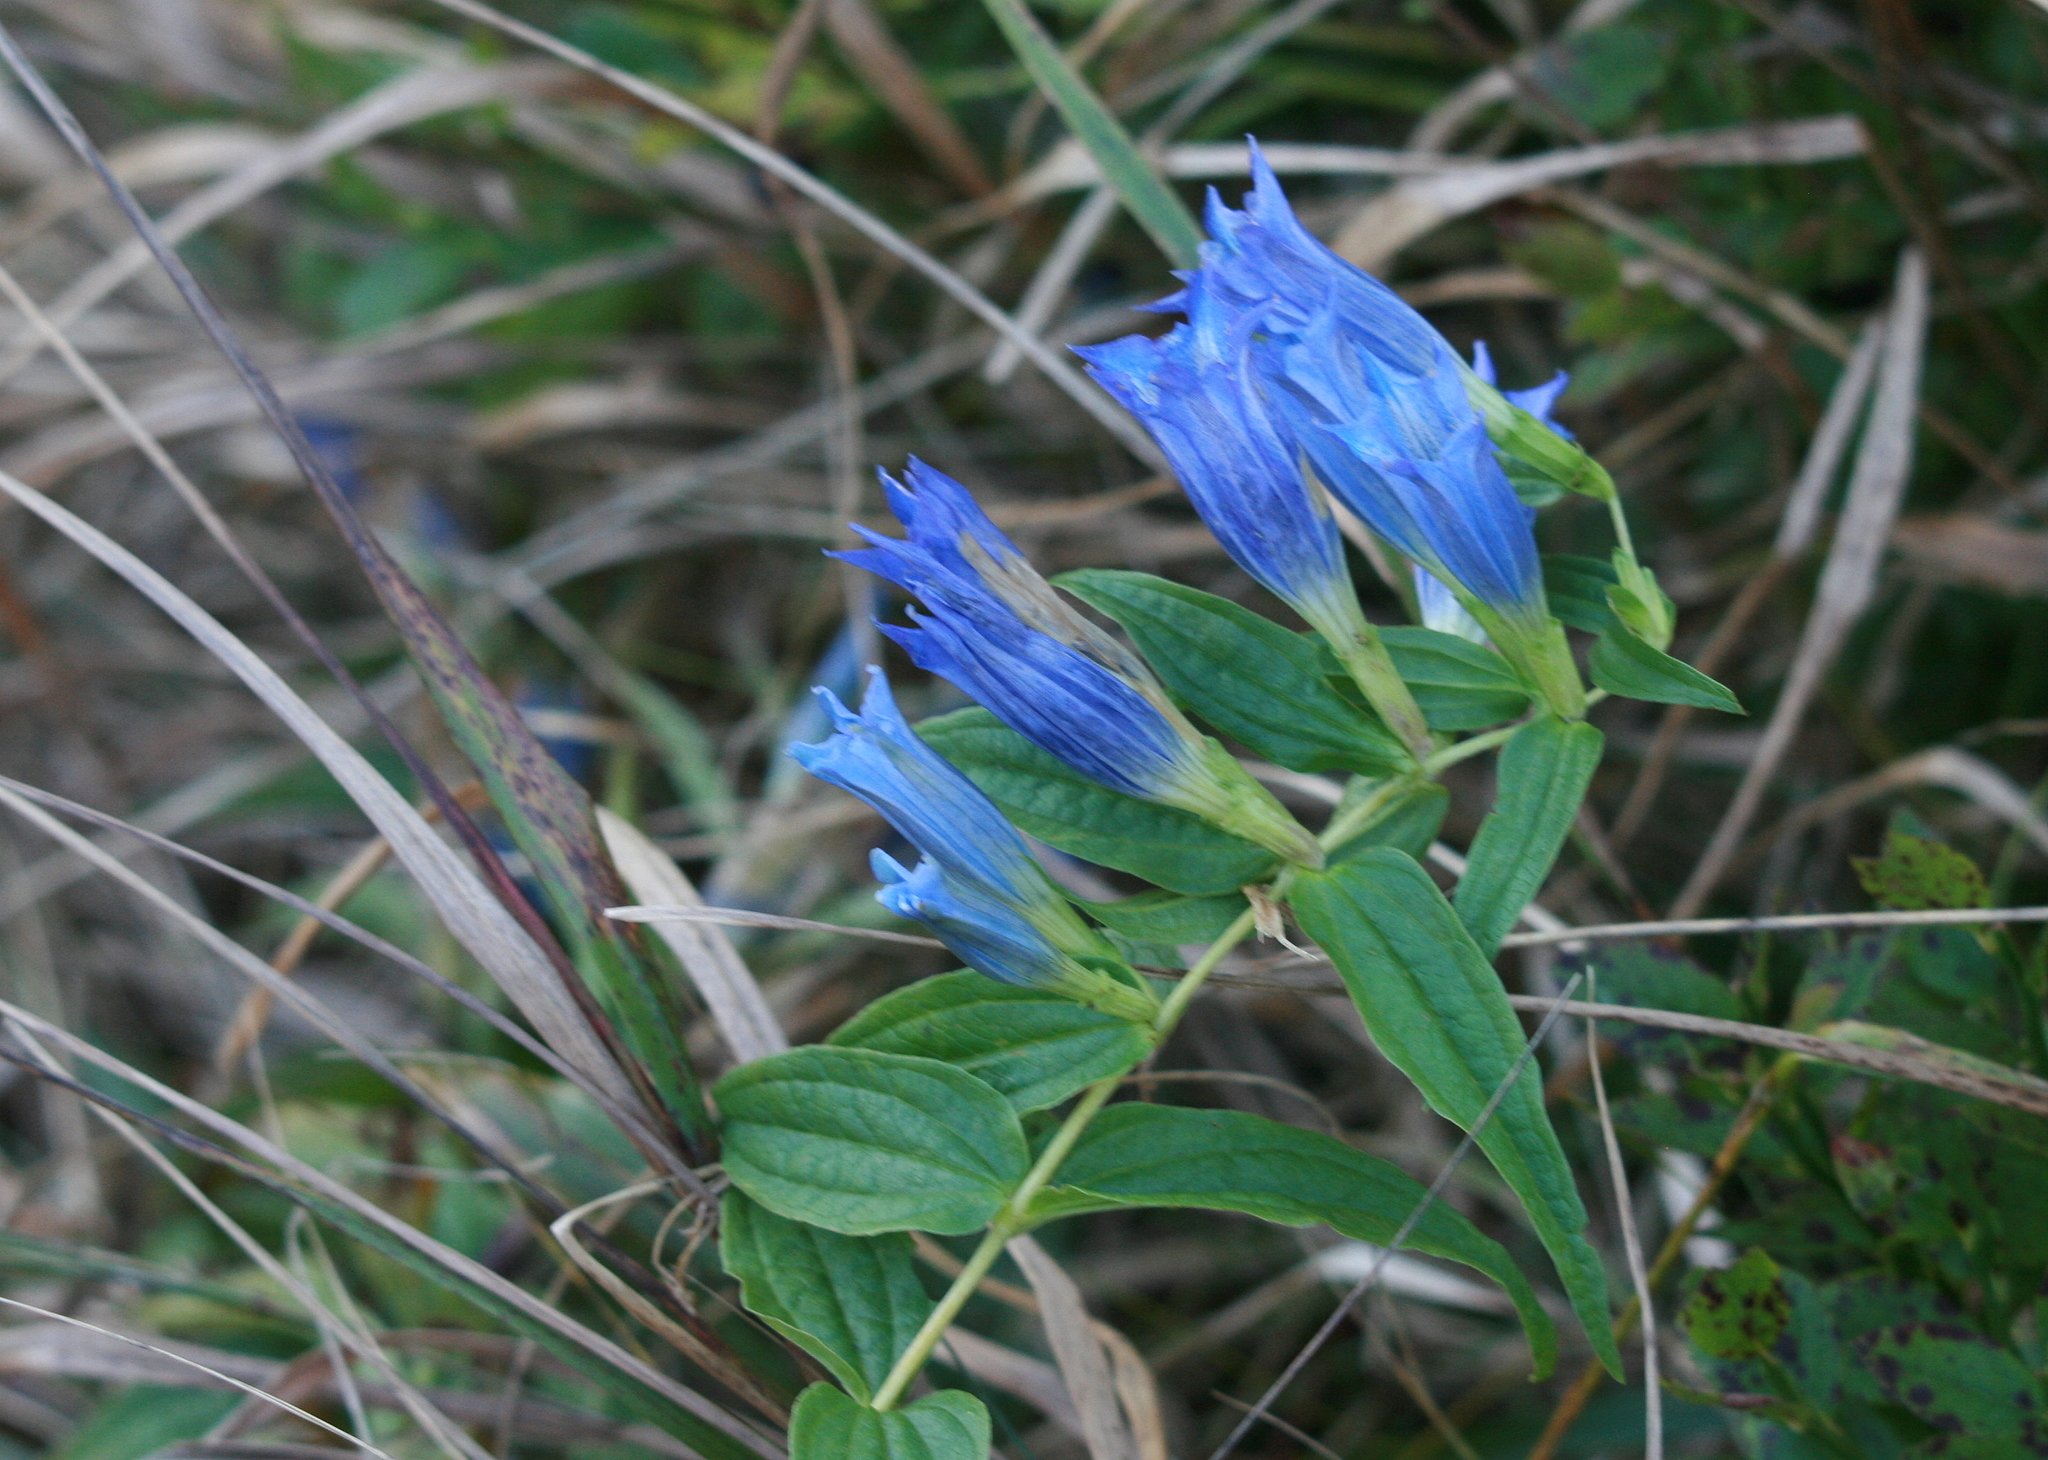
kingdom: Plantae
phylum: Tracheophyta
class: Magnoliopsida
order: Gentianales
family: Gentianaceae
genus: Gentiana
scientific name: Gentiana asclepiadea
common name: Willow gentian
